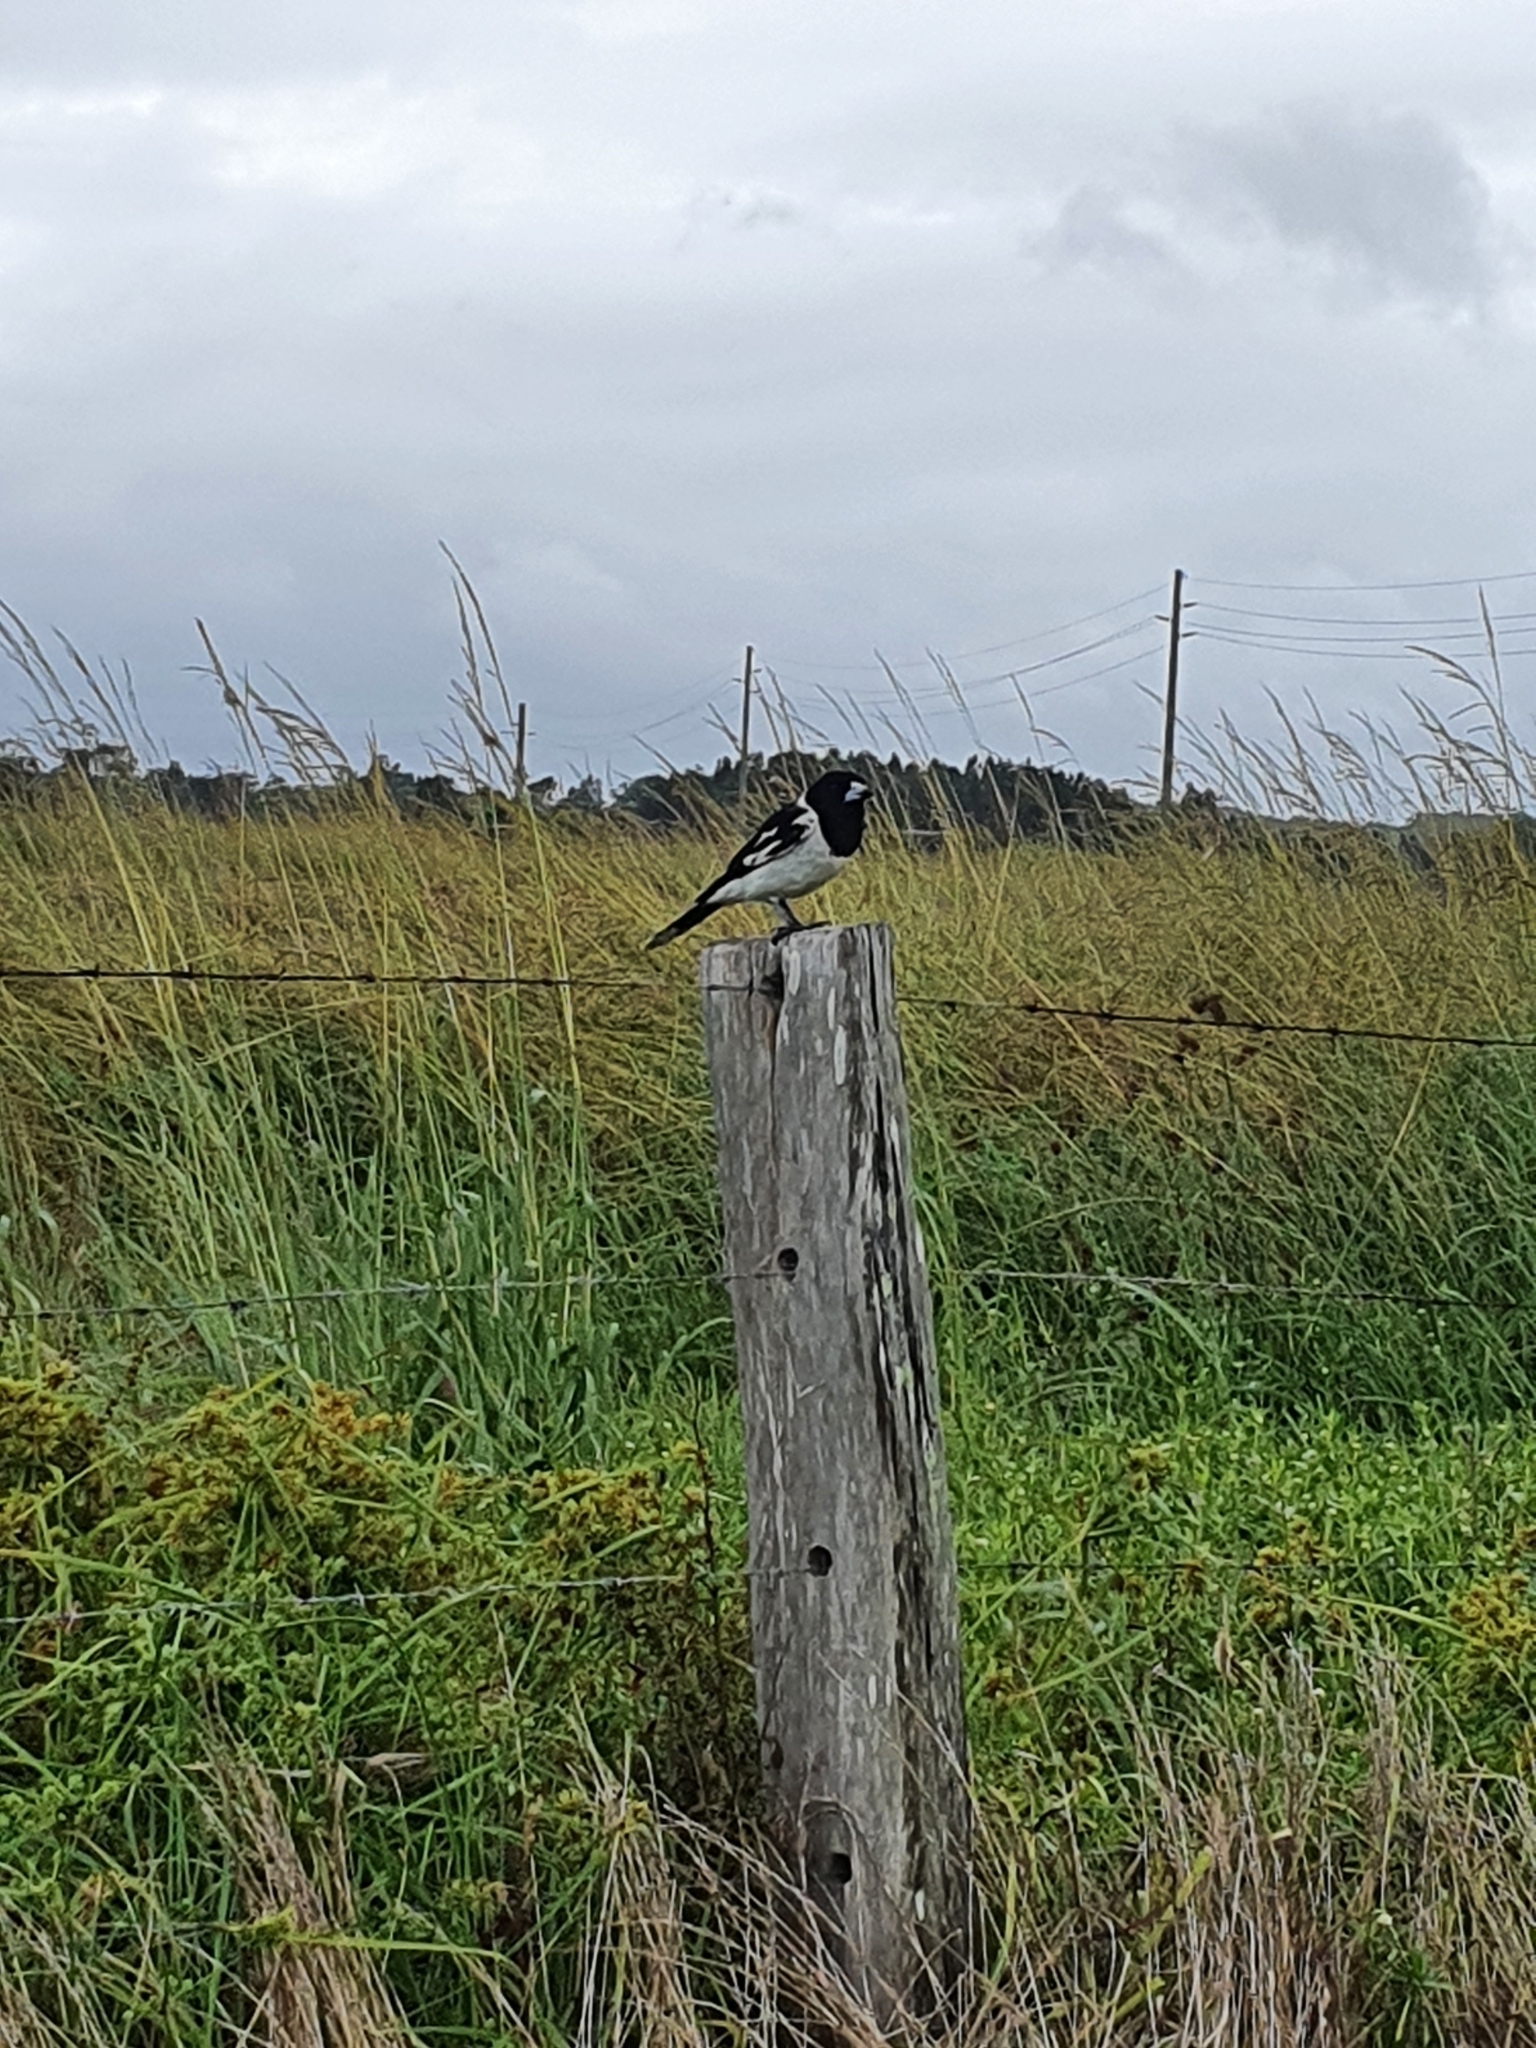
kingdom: Animalia
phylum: Chordata
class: Aves
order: Passeriformes
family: Cracticidae
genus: Cracticus
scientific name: Cracticus nigrogularis
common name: Pied butcherbird
